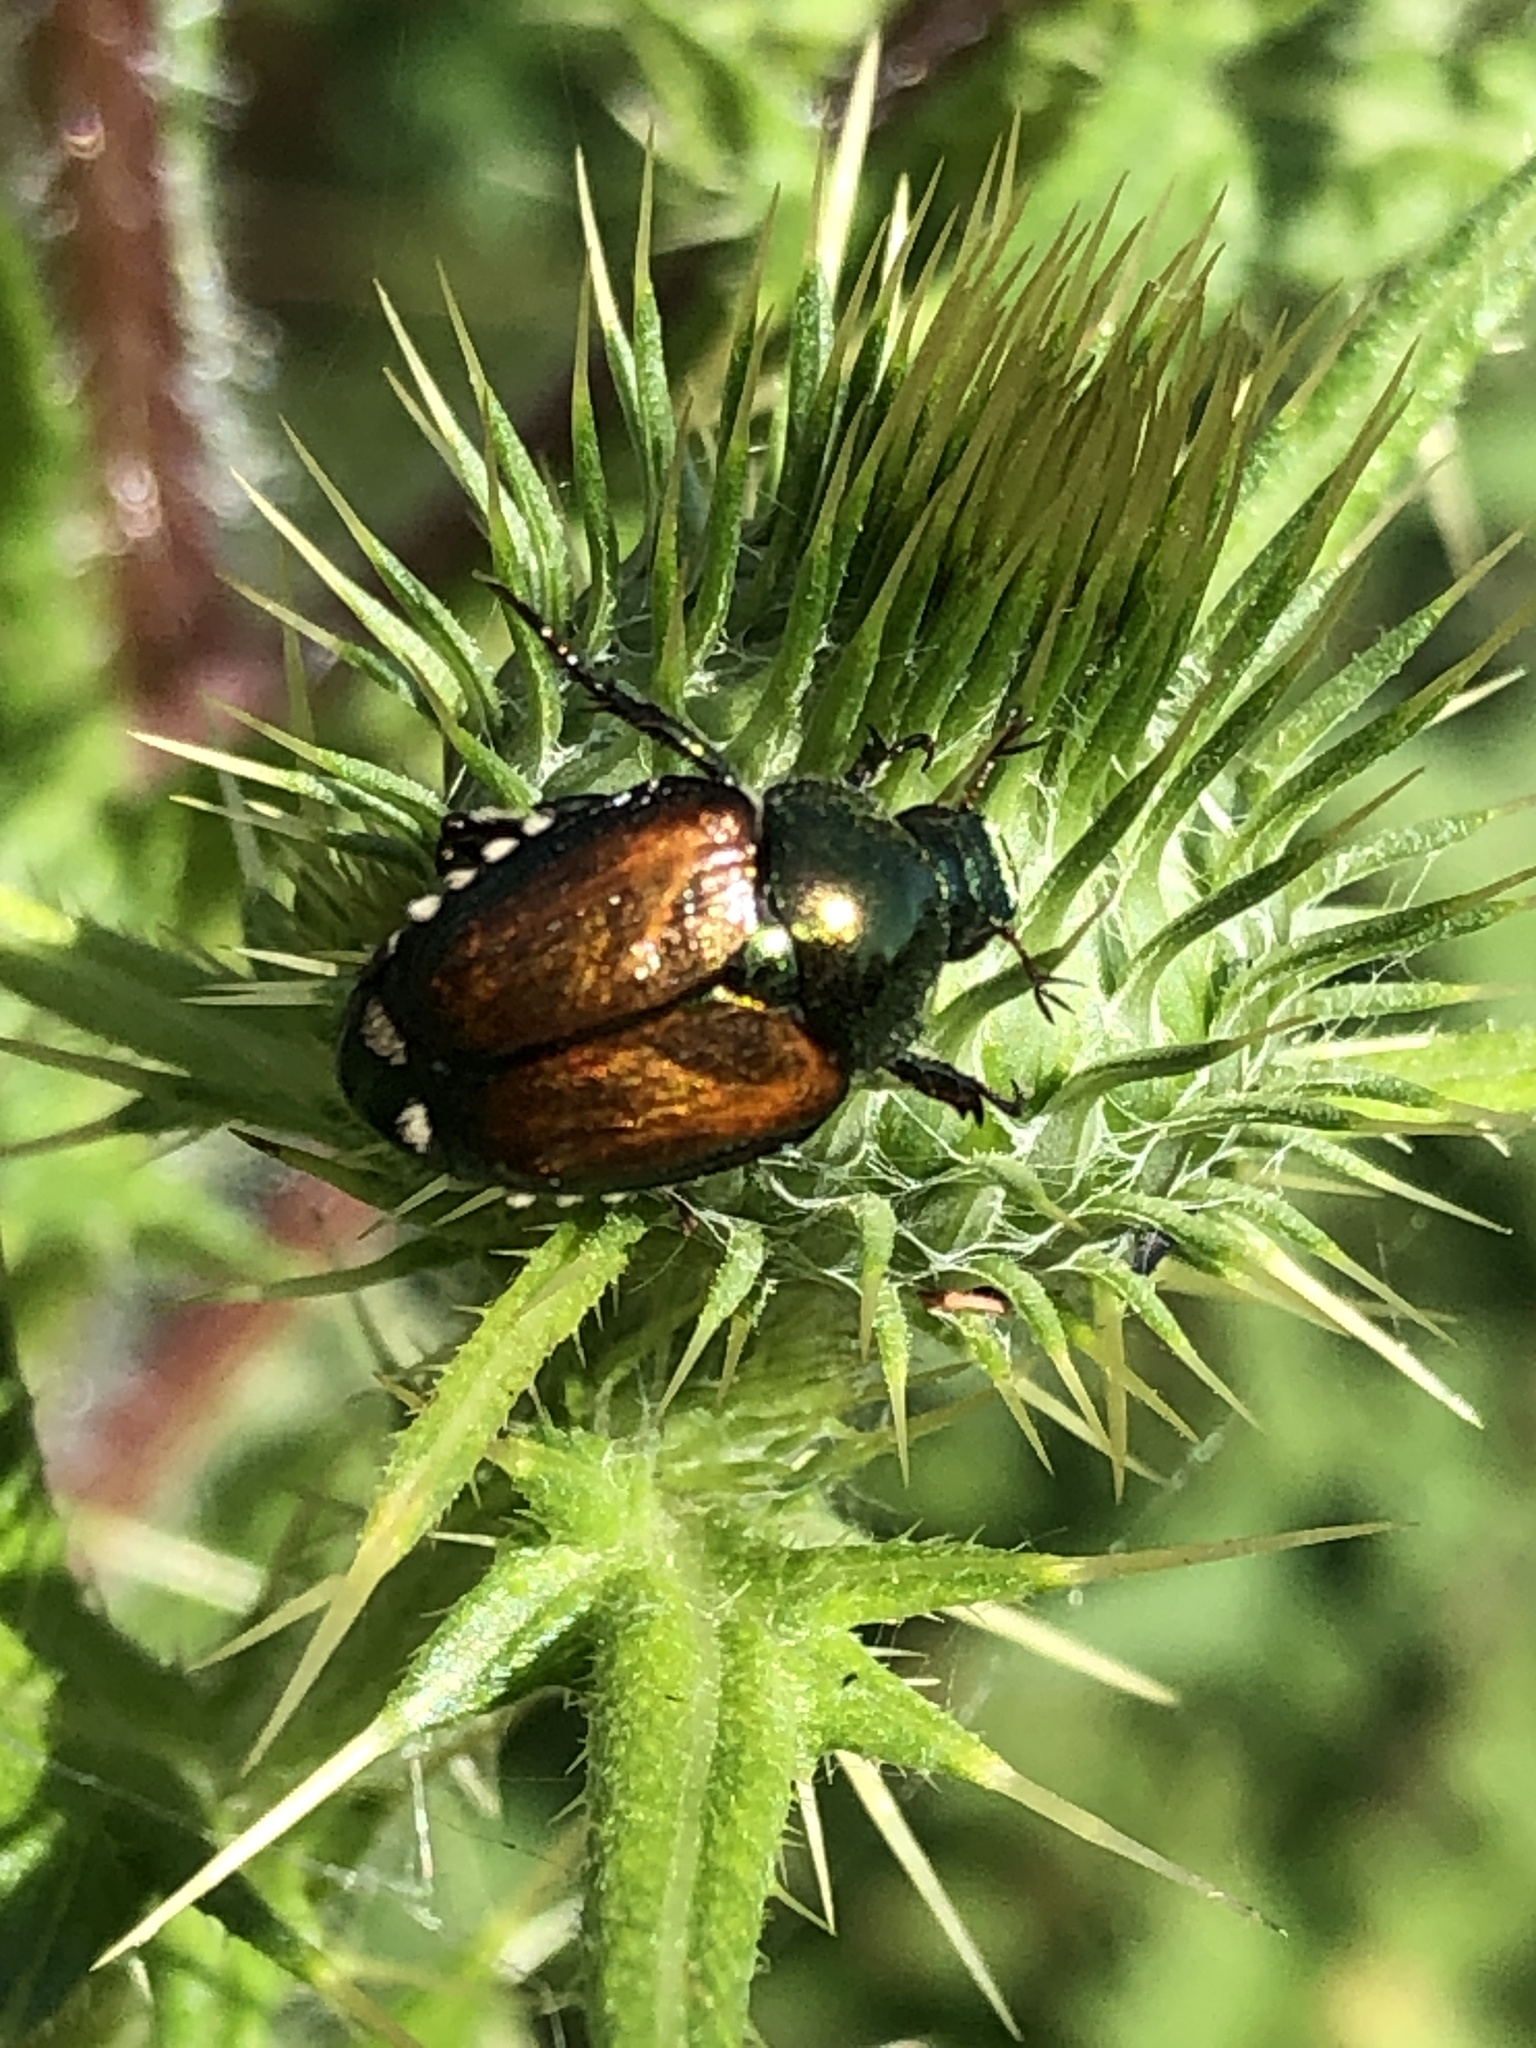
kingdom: Animalia
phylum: Arthropoda
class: Insecta
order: Coleoptera
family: Scarabaeidae
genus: Popillia
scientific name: Popillia japonica
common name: Japanese beetle
